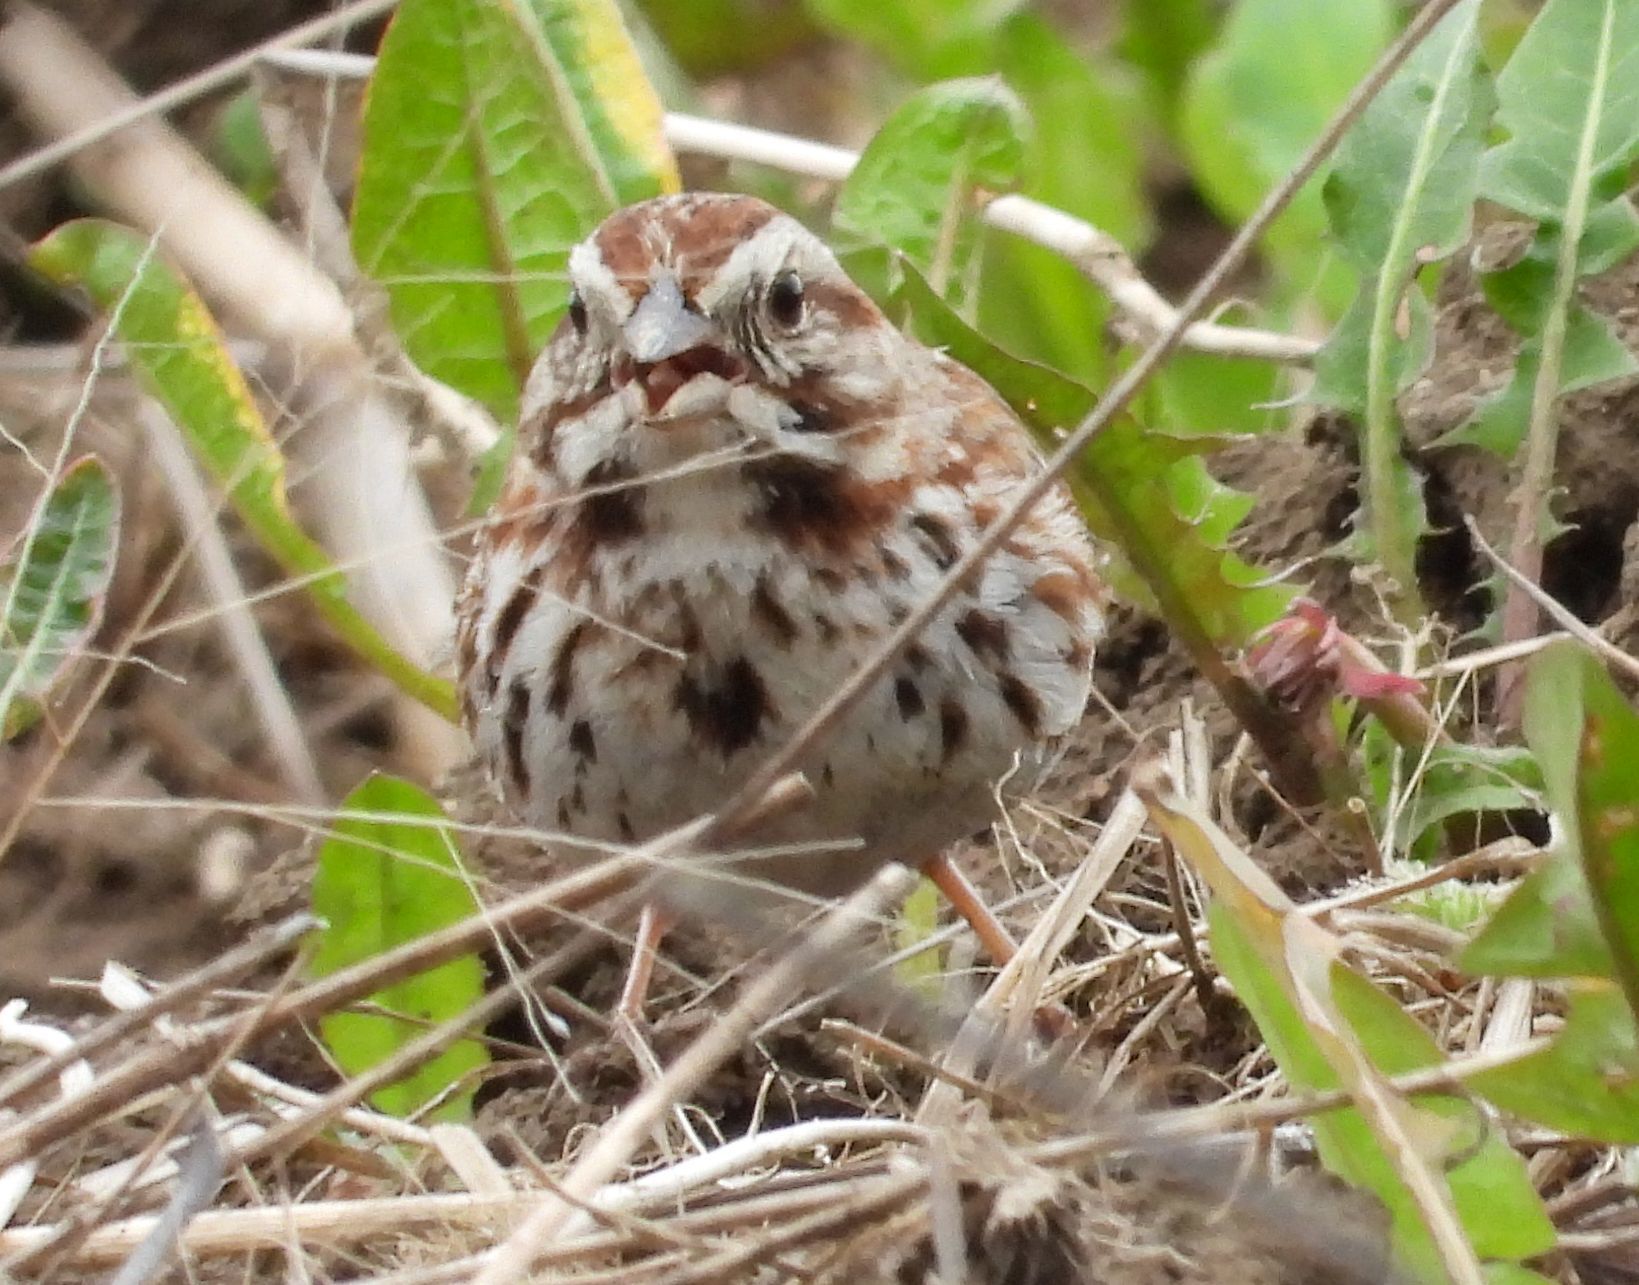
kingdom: Animalia
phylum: Chordata
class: Aves
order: Passeriformes
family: Passerellidae
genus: Melospiza
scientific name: Melospiza melodia
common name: Song sparrow
